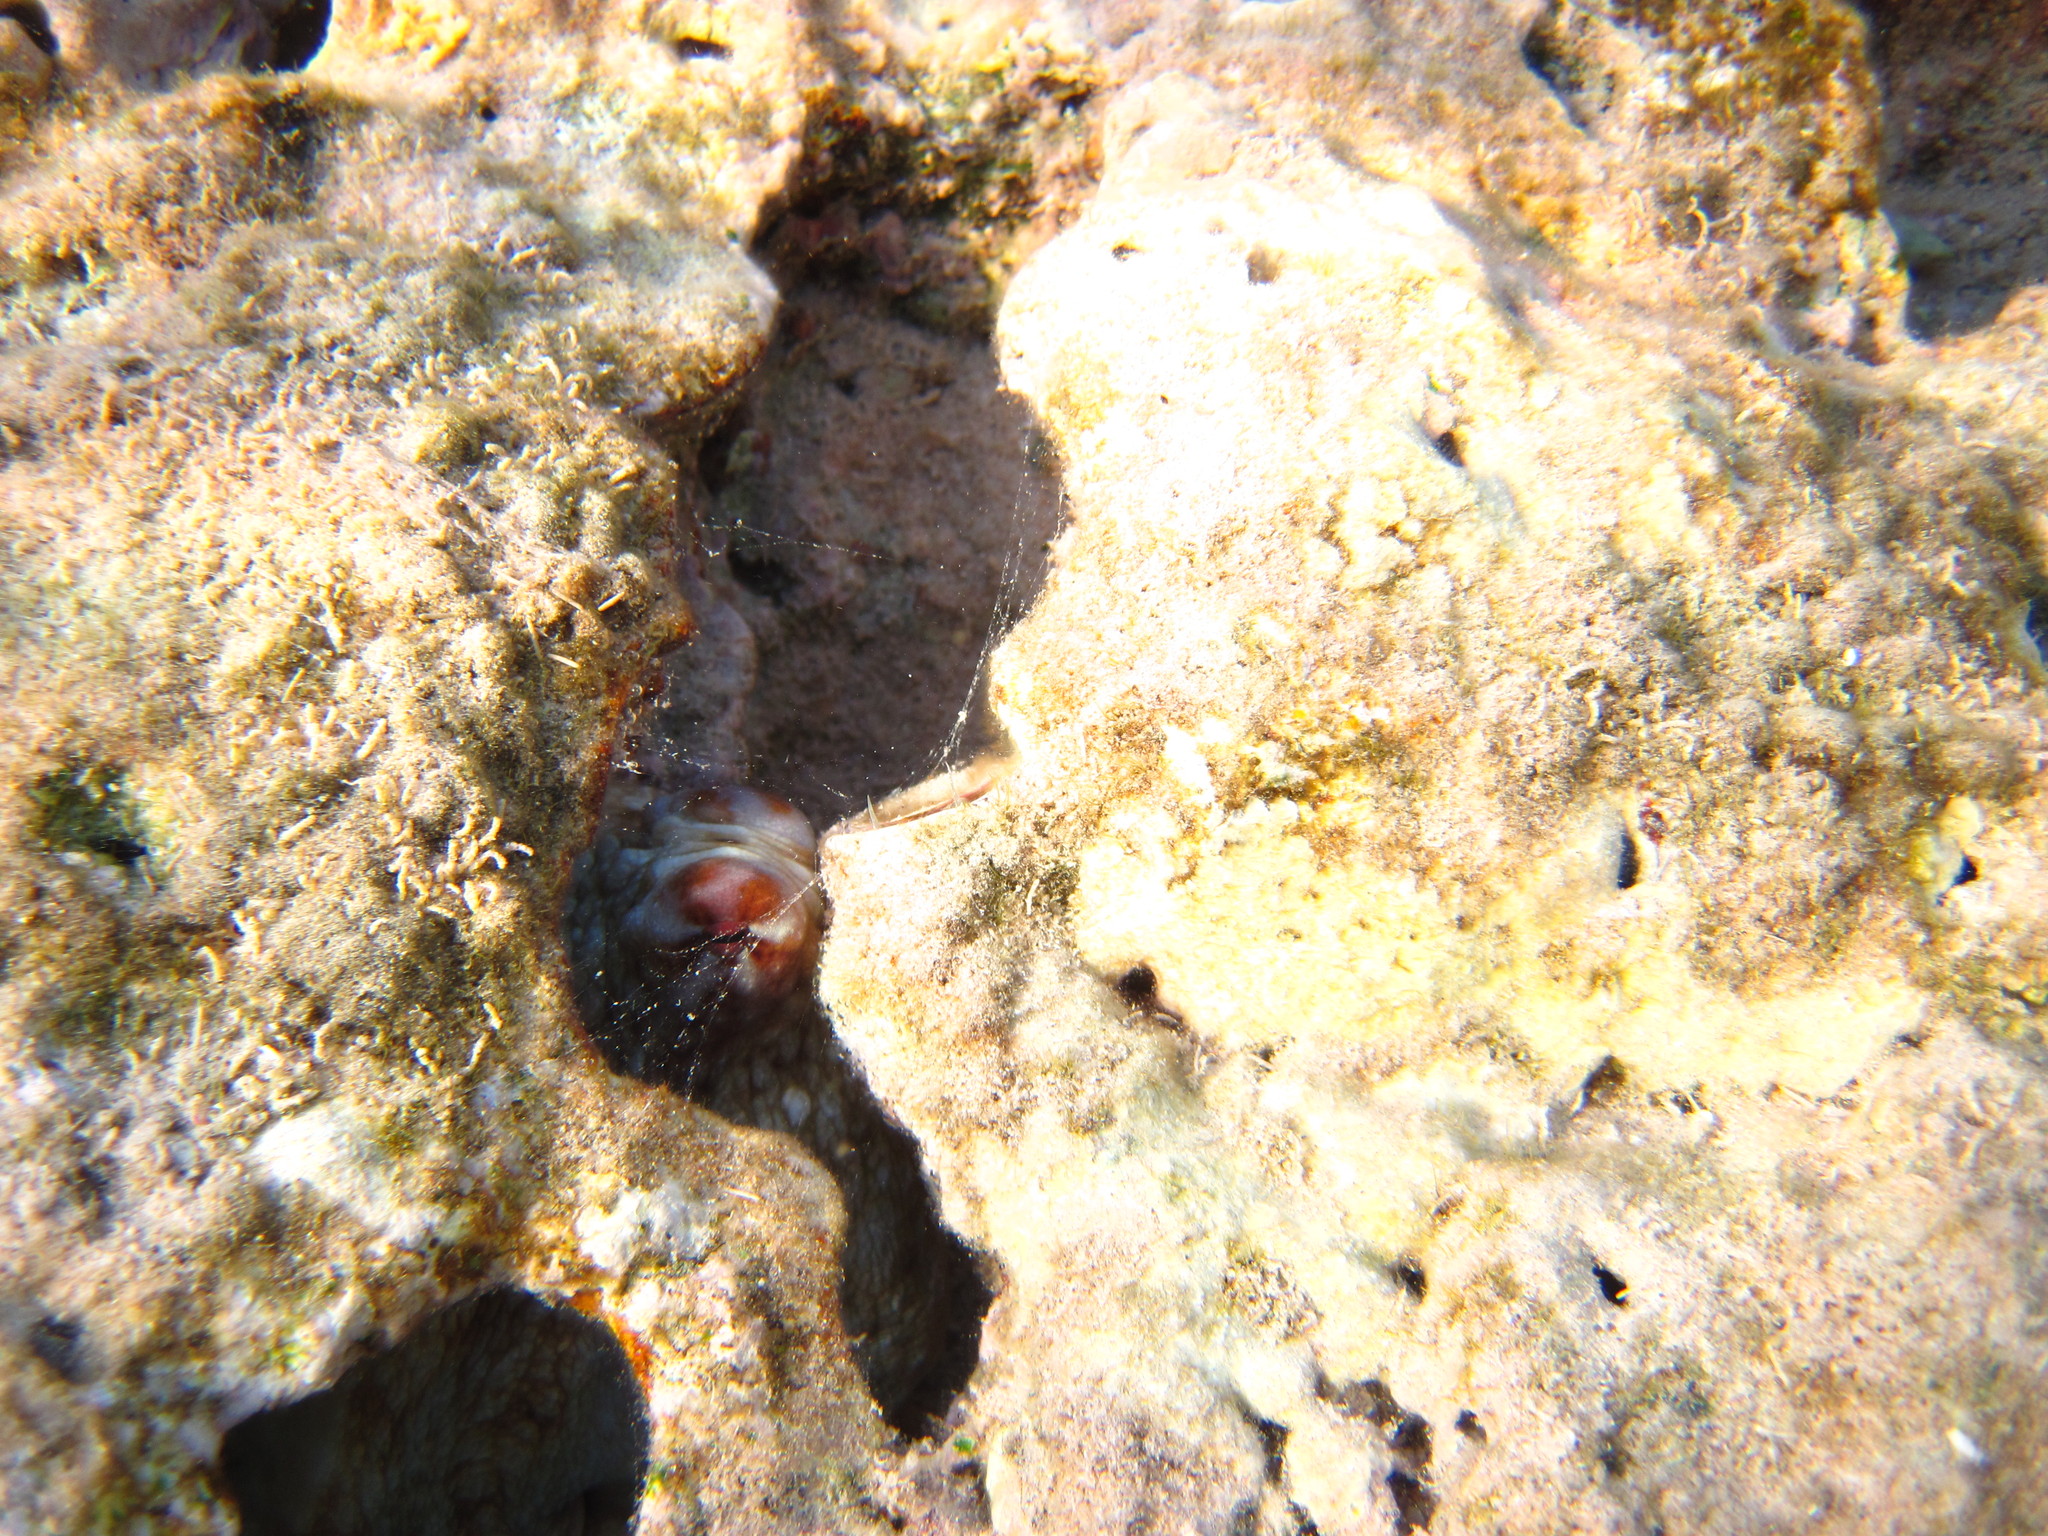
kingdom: Animalia
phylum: Mollusca
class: Cephalopoda
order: Octopoda
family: Octopodidae
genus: Octopus
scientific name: Octopus cyanea
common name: Cyane's octopus
